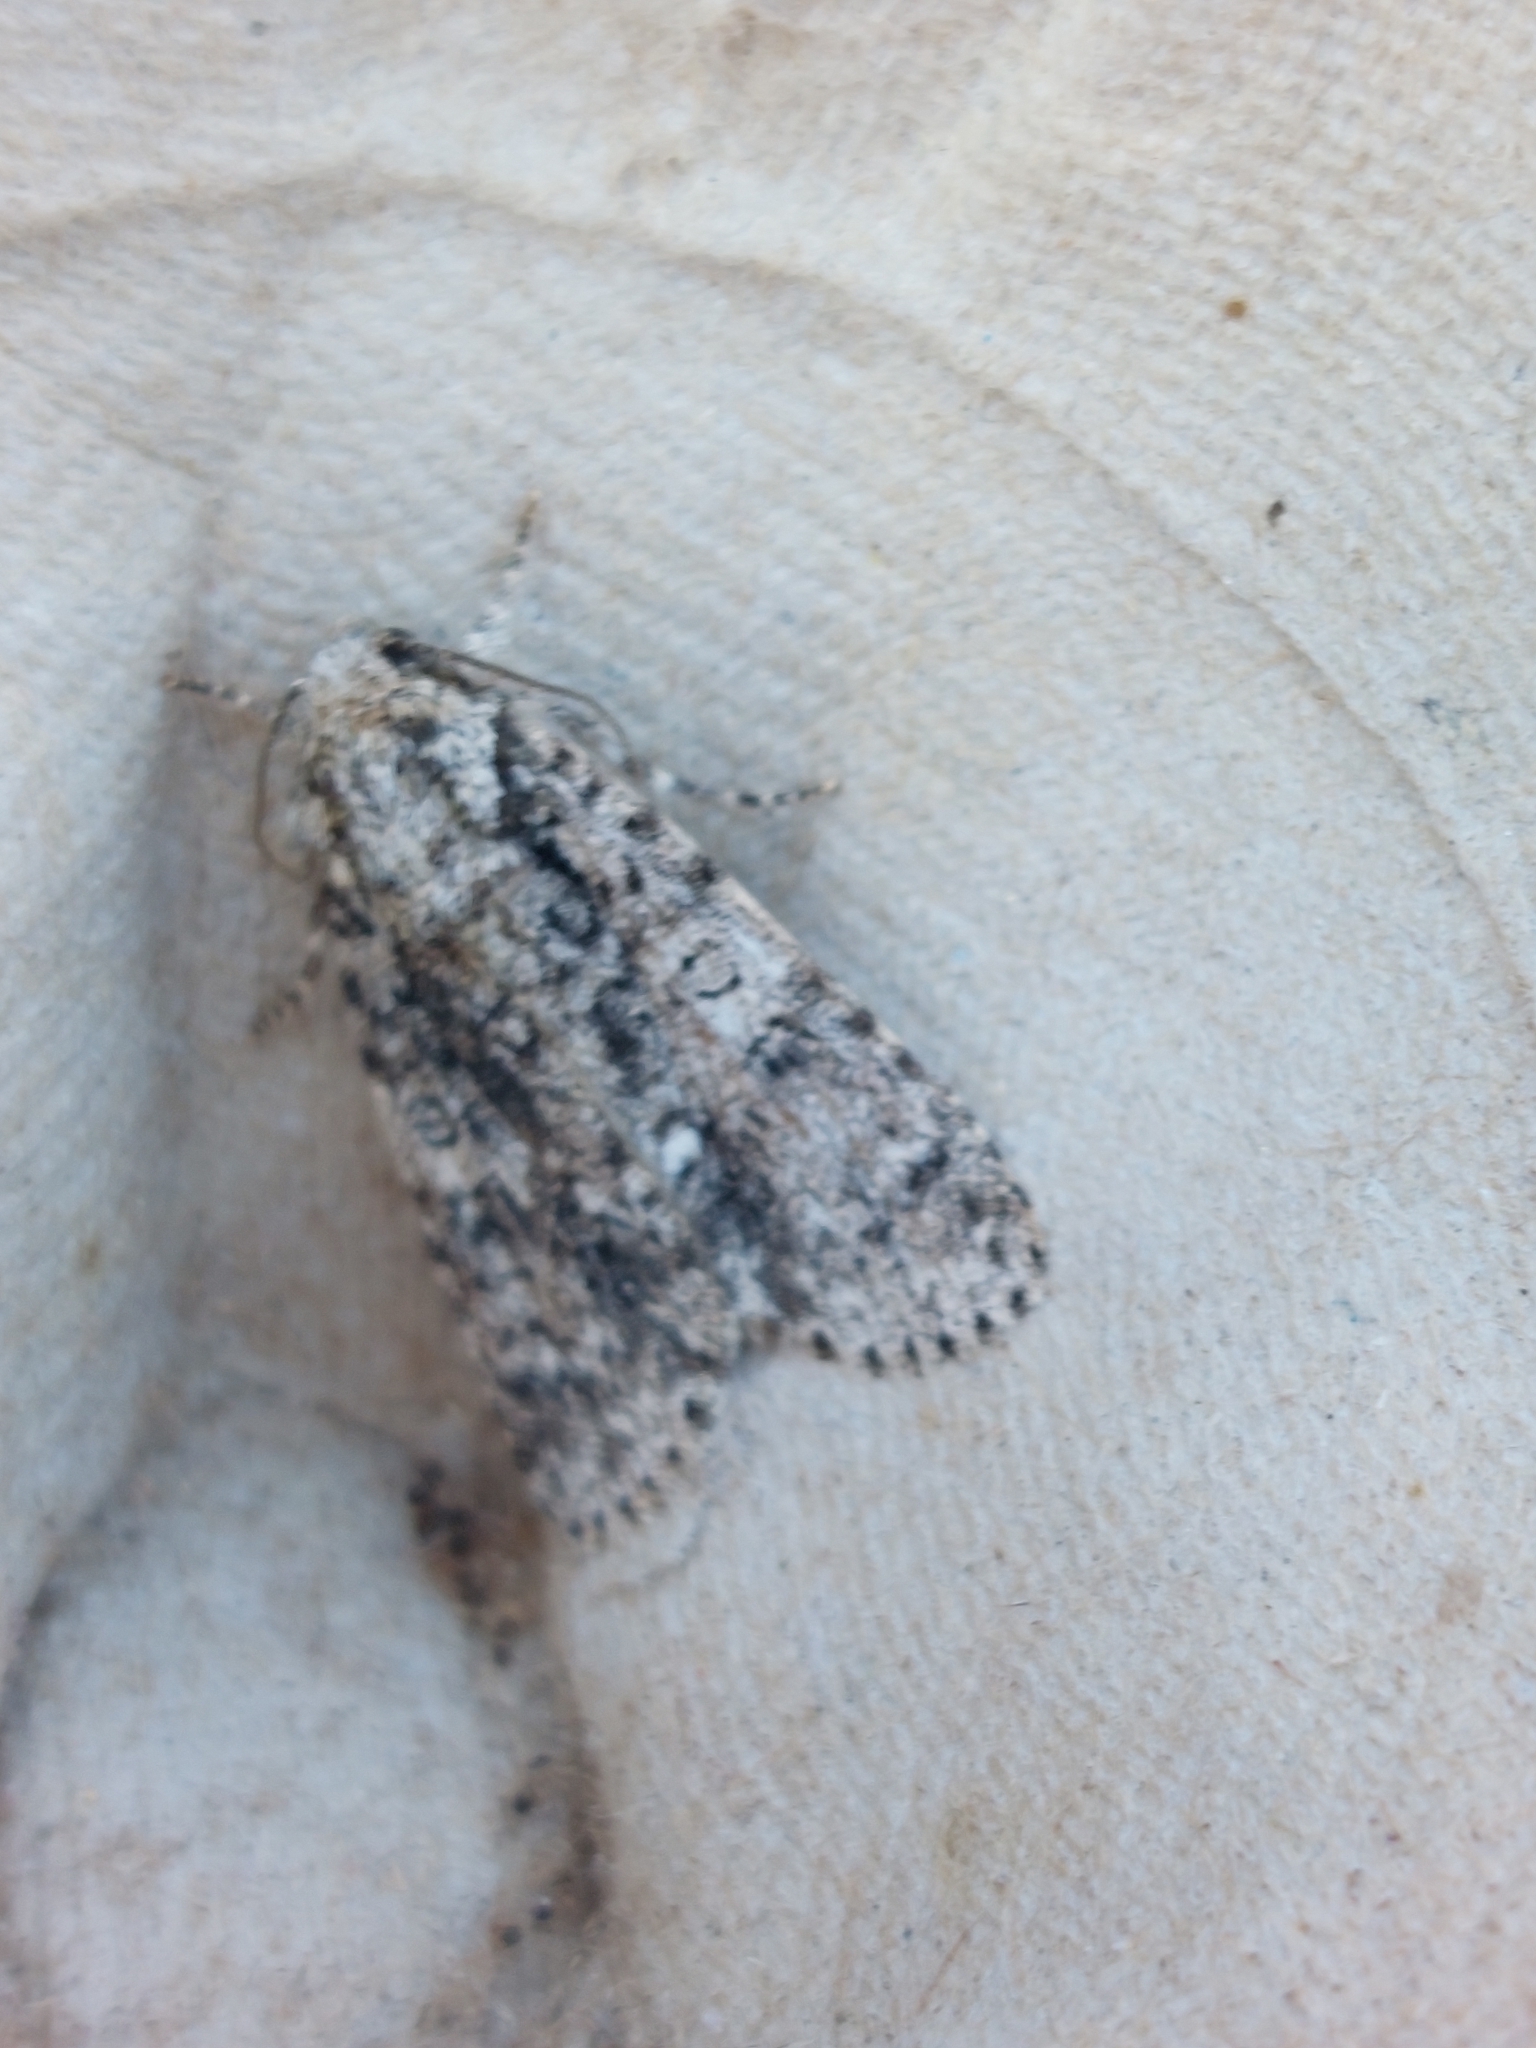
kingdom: Animalia
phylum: Arthropoda
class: Insecta
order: Lepidoptera
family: Noctuidae
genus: Acronicta
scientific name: Acronicta rumicis
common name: Knot grass
